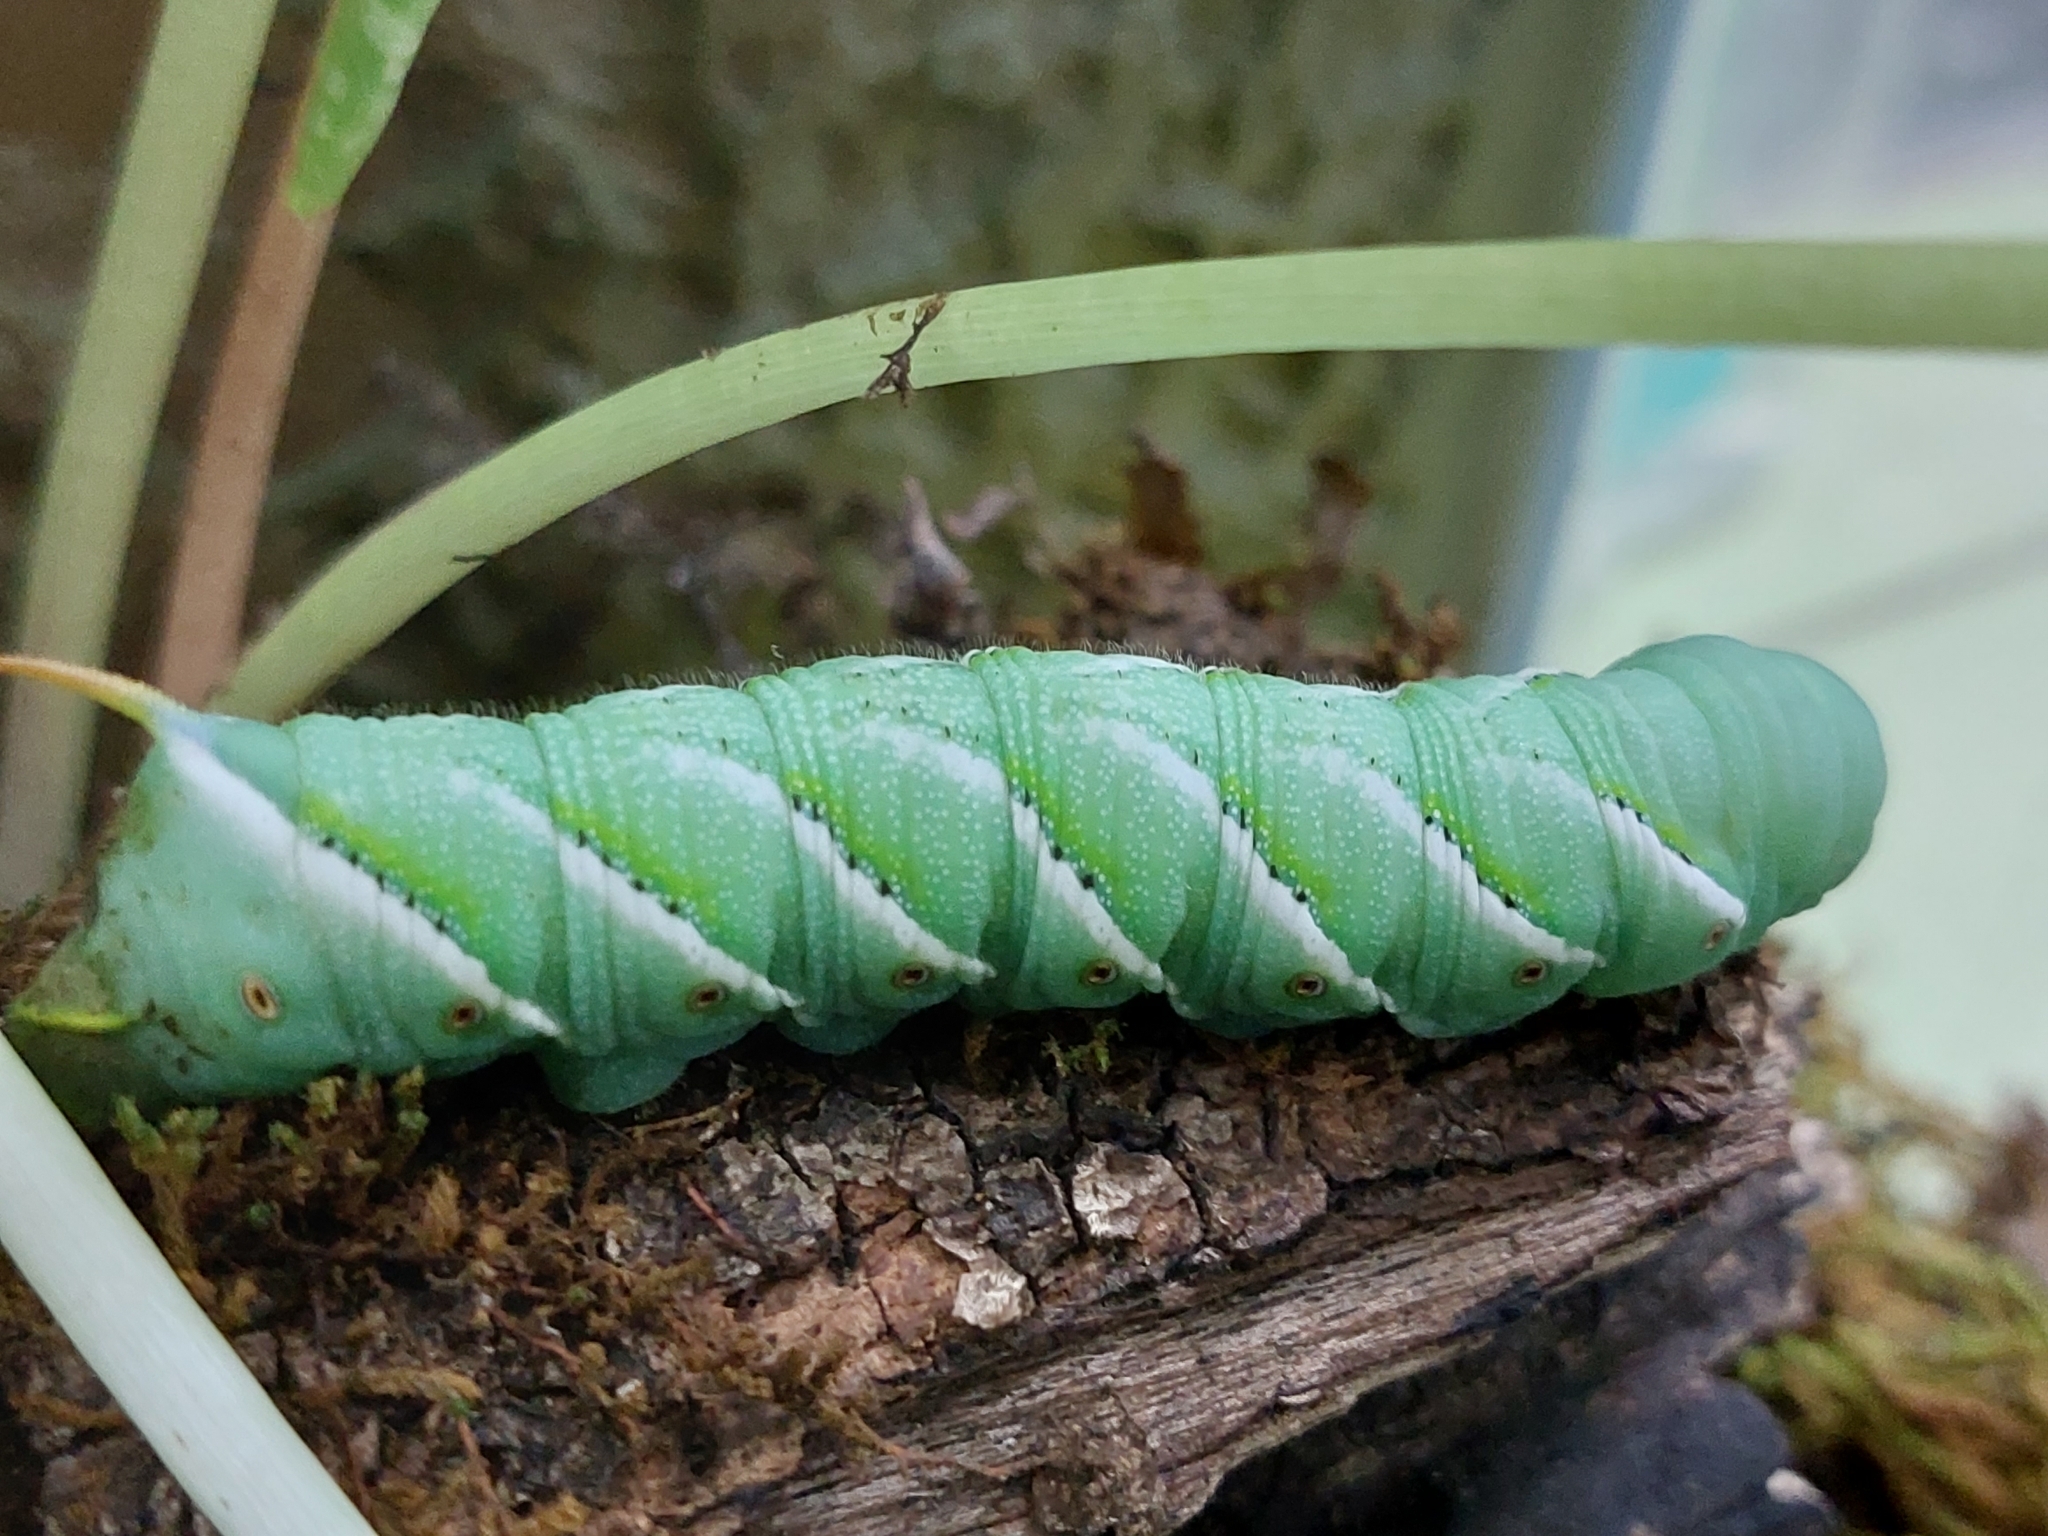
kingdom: Animalia
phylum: Arthropoda
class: Insecta
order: Lepidoptera
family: Sphingidae
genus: Manduca
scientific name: Manduca sexta
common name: Carolina sphinx
